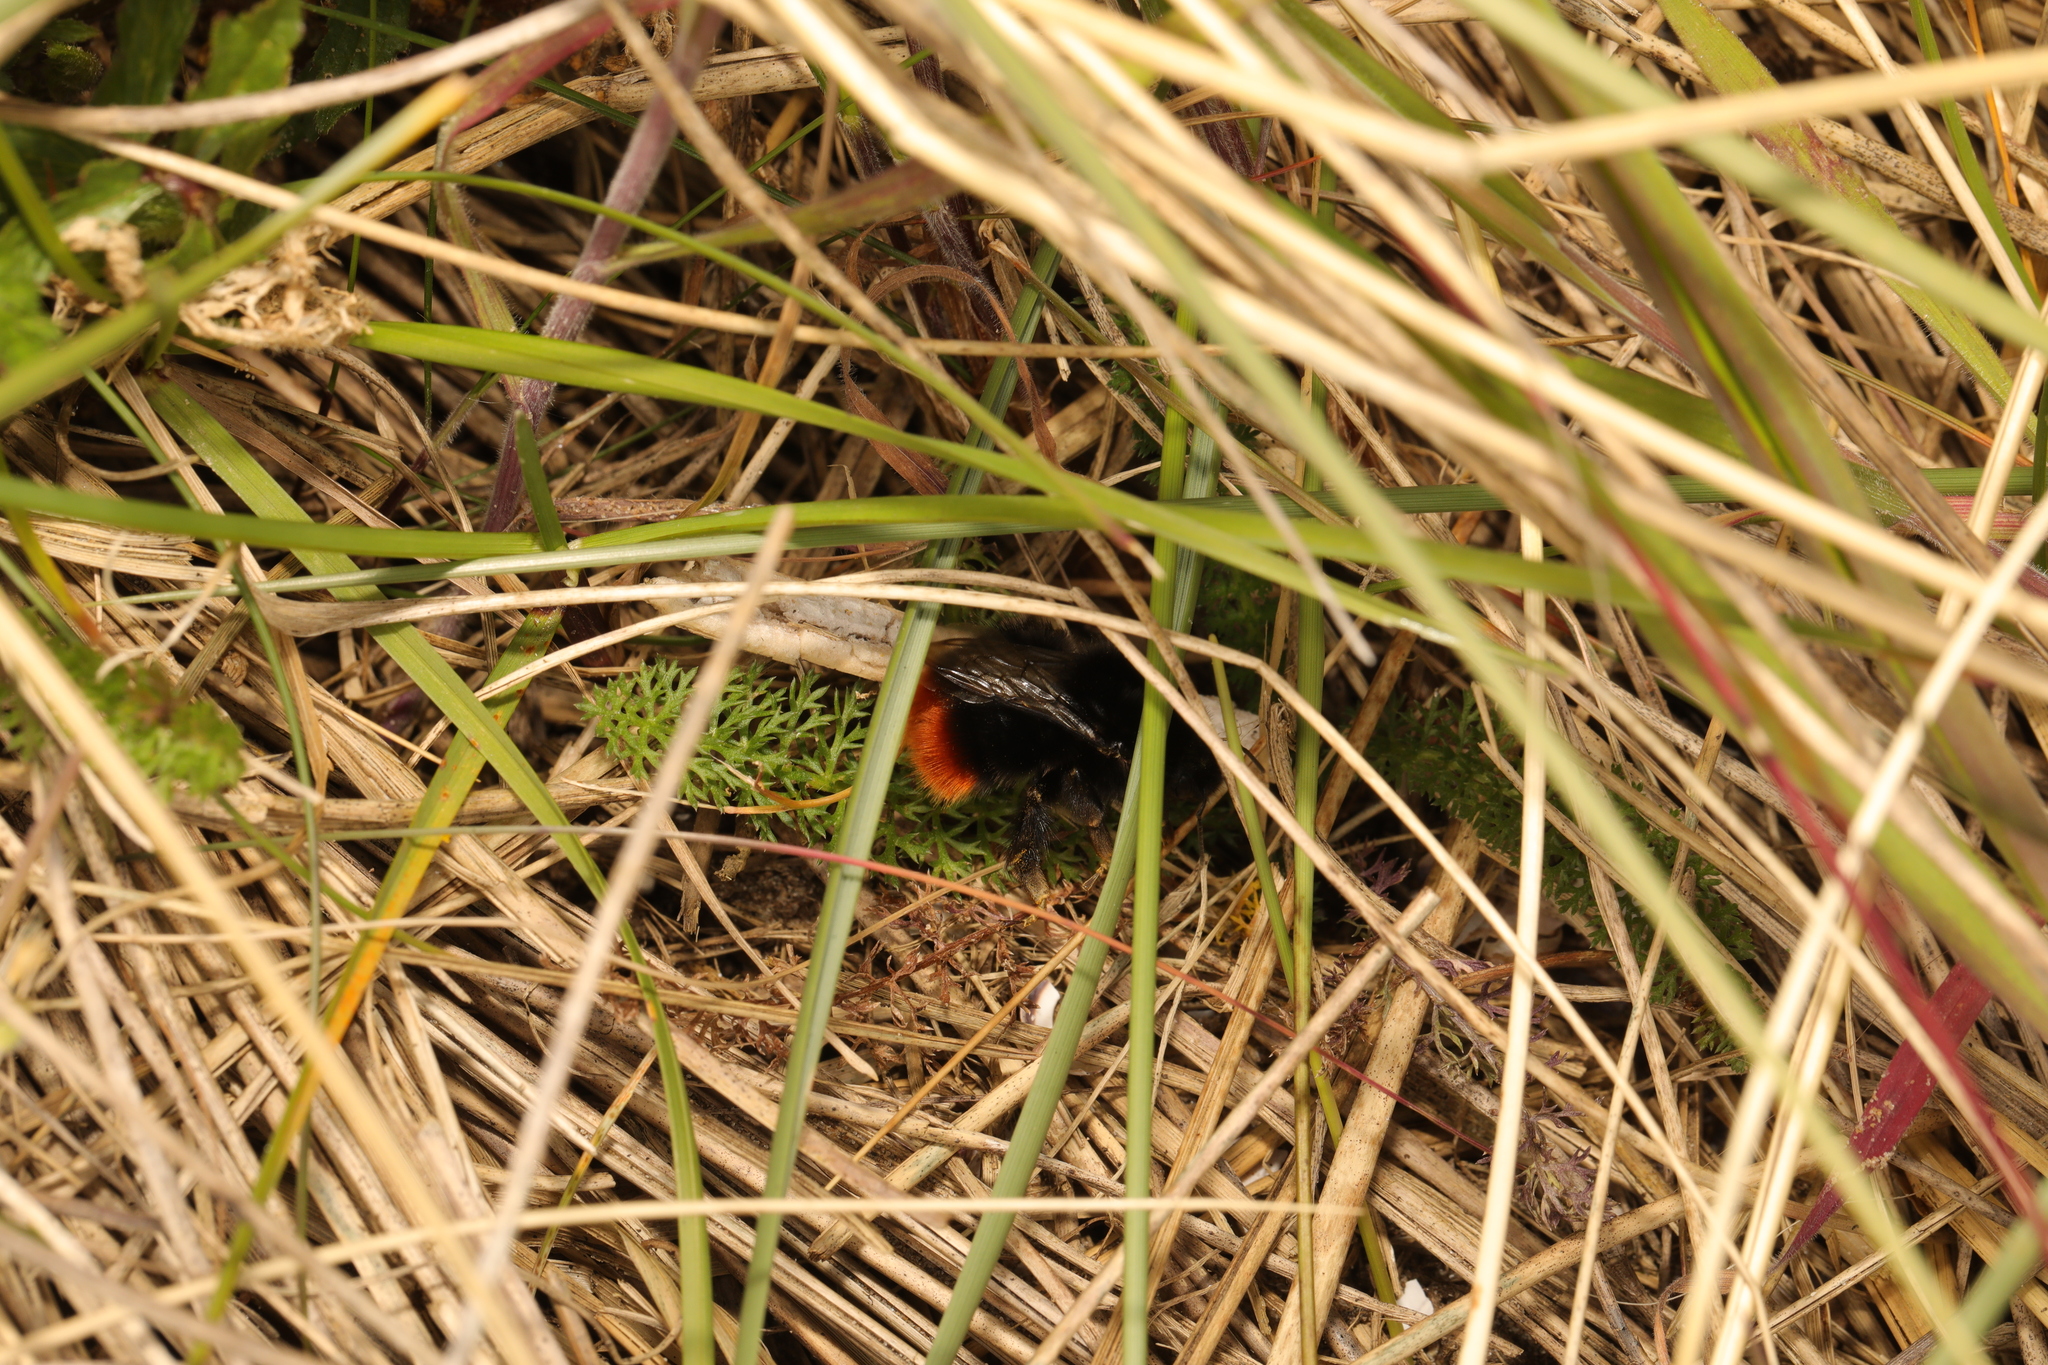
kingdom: Animalia
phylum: Arthropoda
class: Insecta
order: Hymenoptera
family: Apidae
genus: Bombus
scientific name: Bombus lapidarius
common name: Large red-tailed humble-bee
